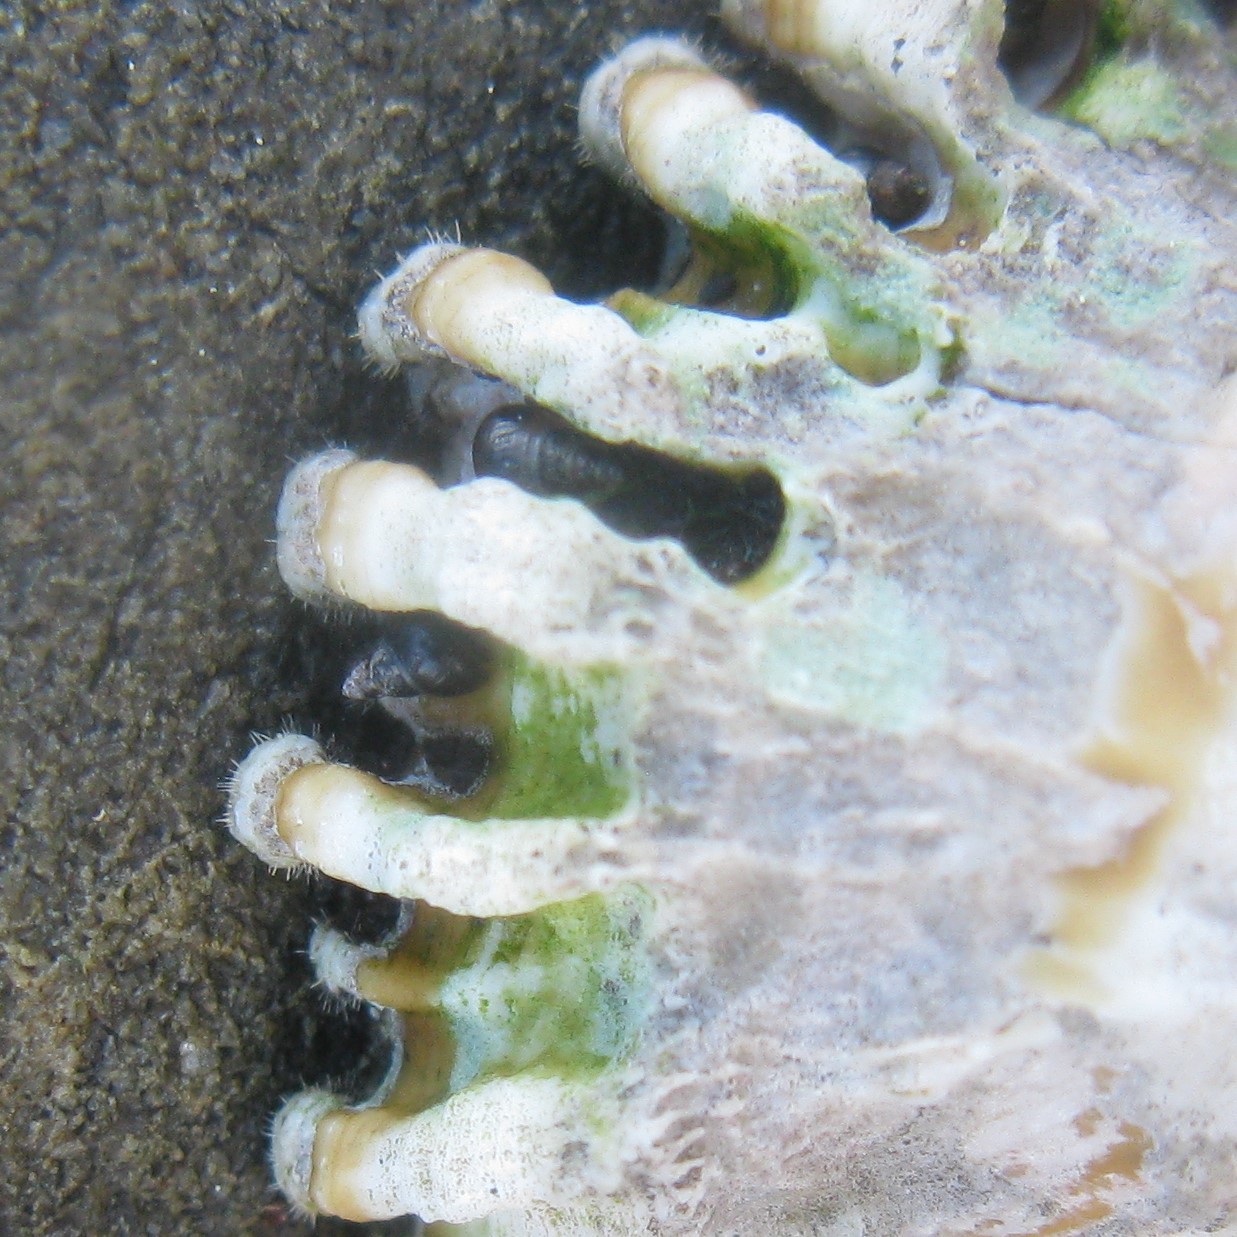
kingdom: Animalia
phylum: Arthropoda
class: Maxillopoda
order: Sessilia
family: Tetraclitidae
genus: Epopella
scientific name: Epopella plicata
